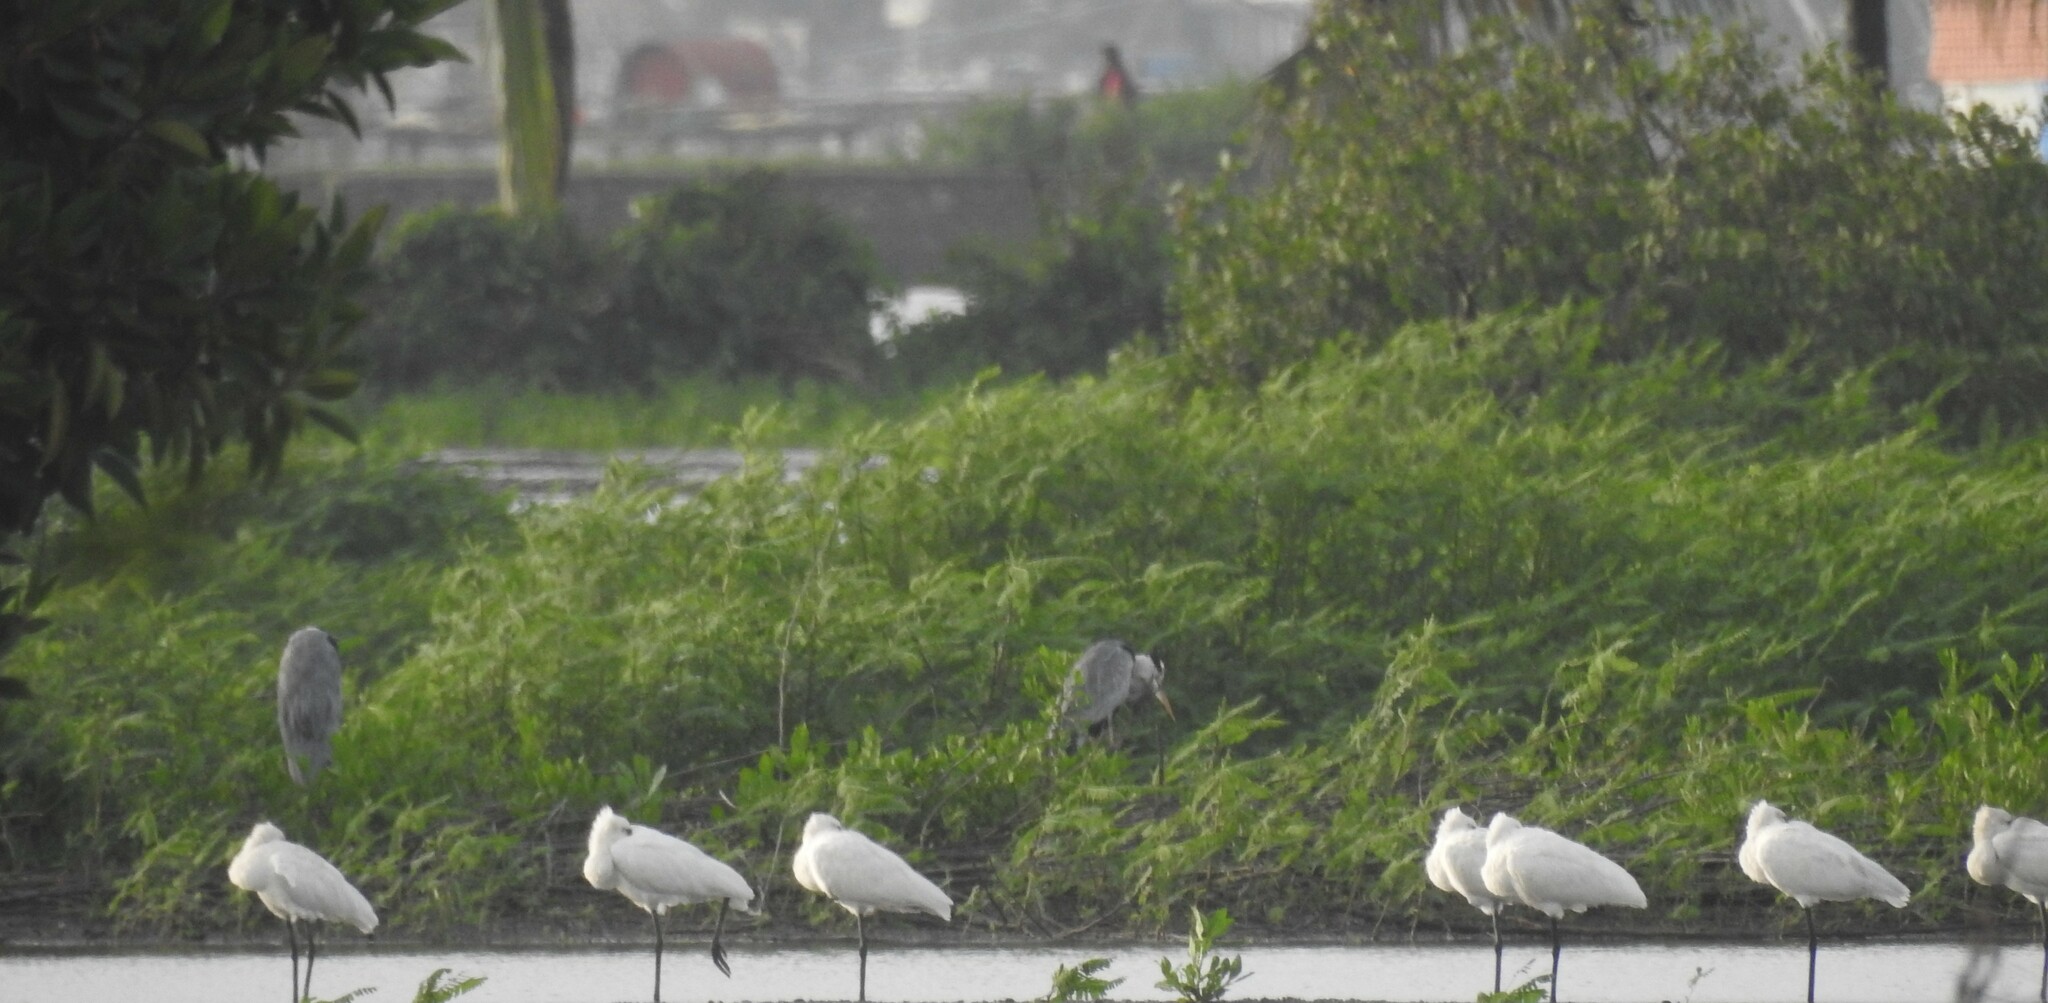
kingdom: Animalia
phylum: Chordata
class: Aves
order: Pelecaniformes
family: Ardeidae
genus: Ardea
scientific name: Ardea cinerea
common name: Grey heron
